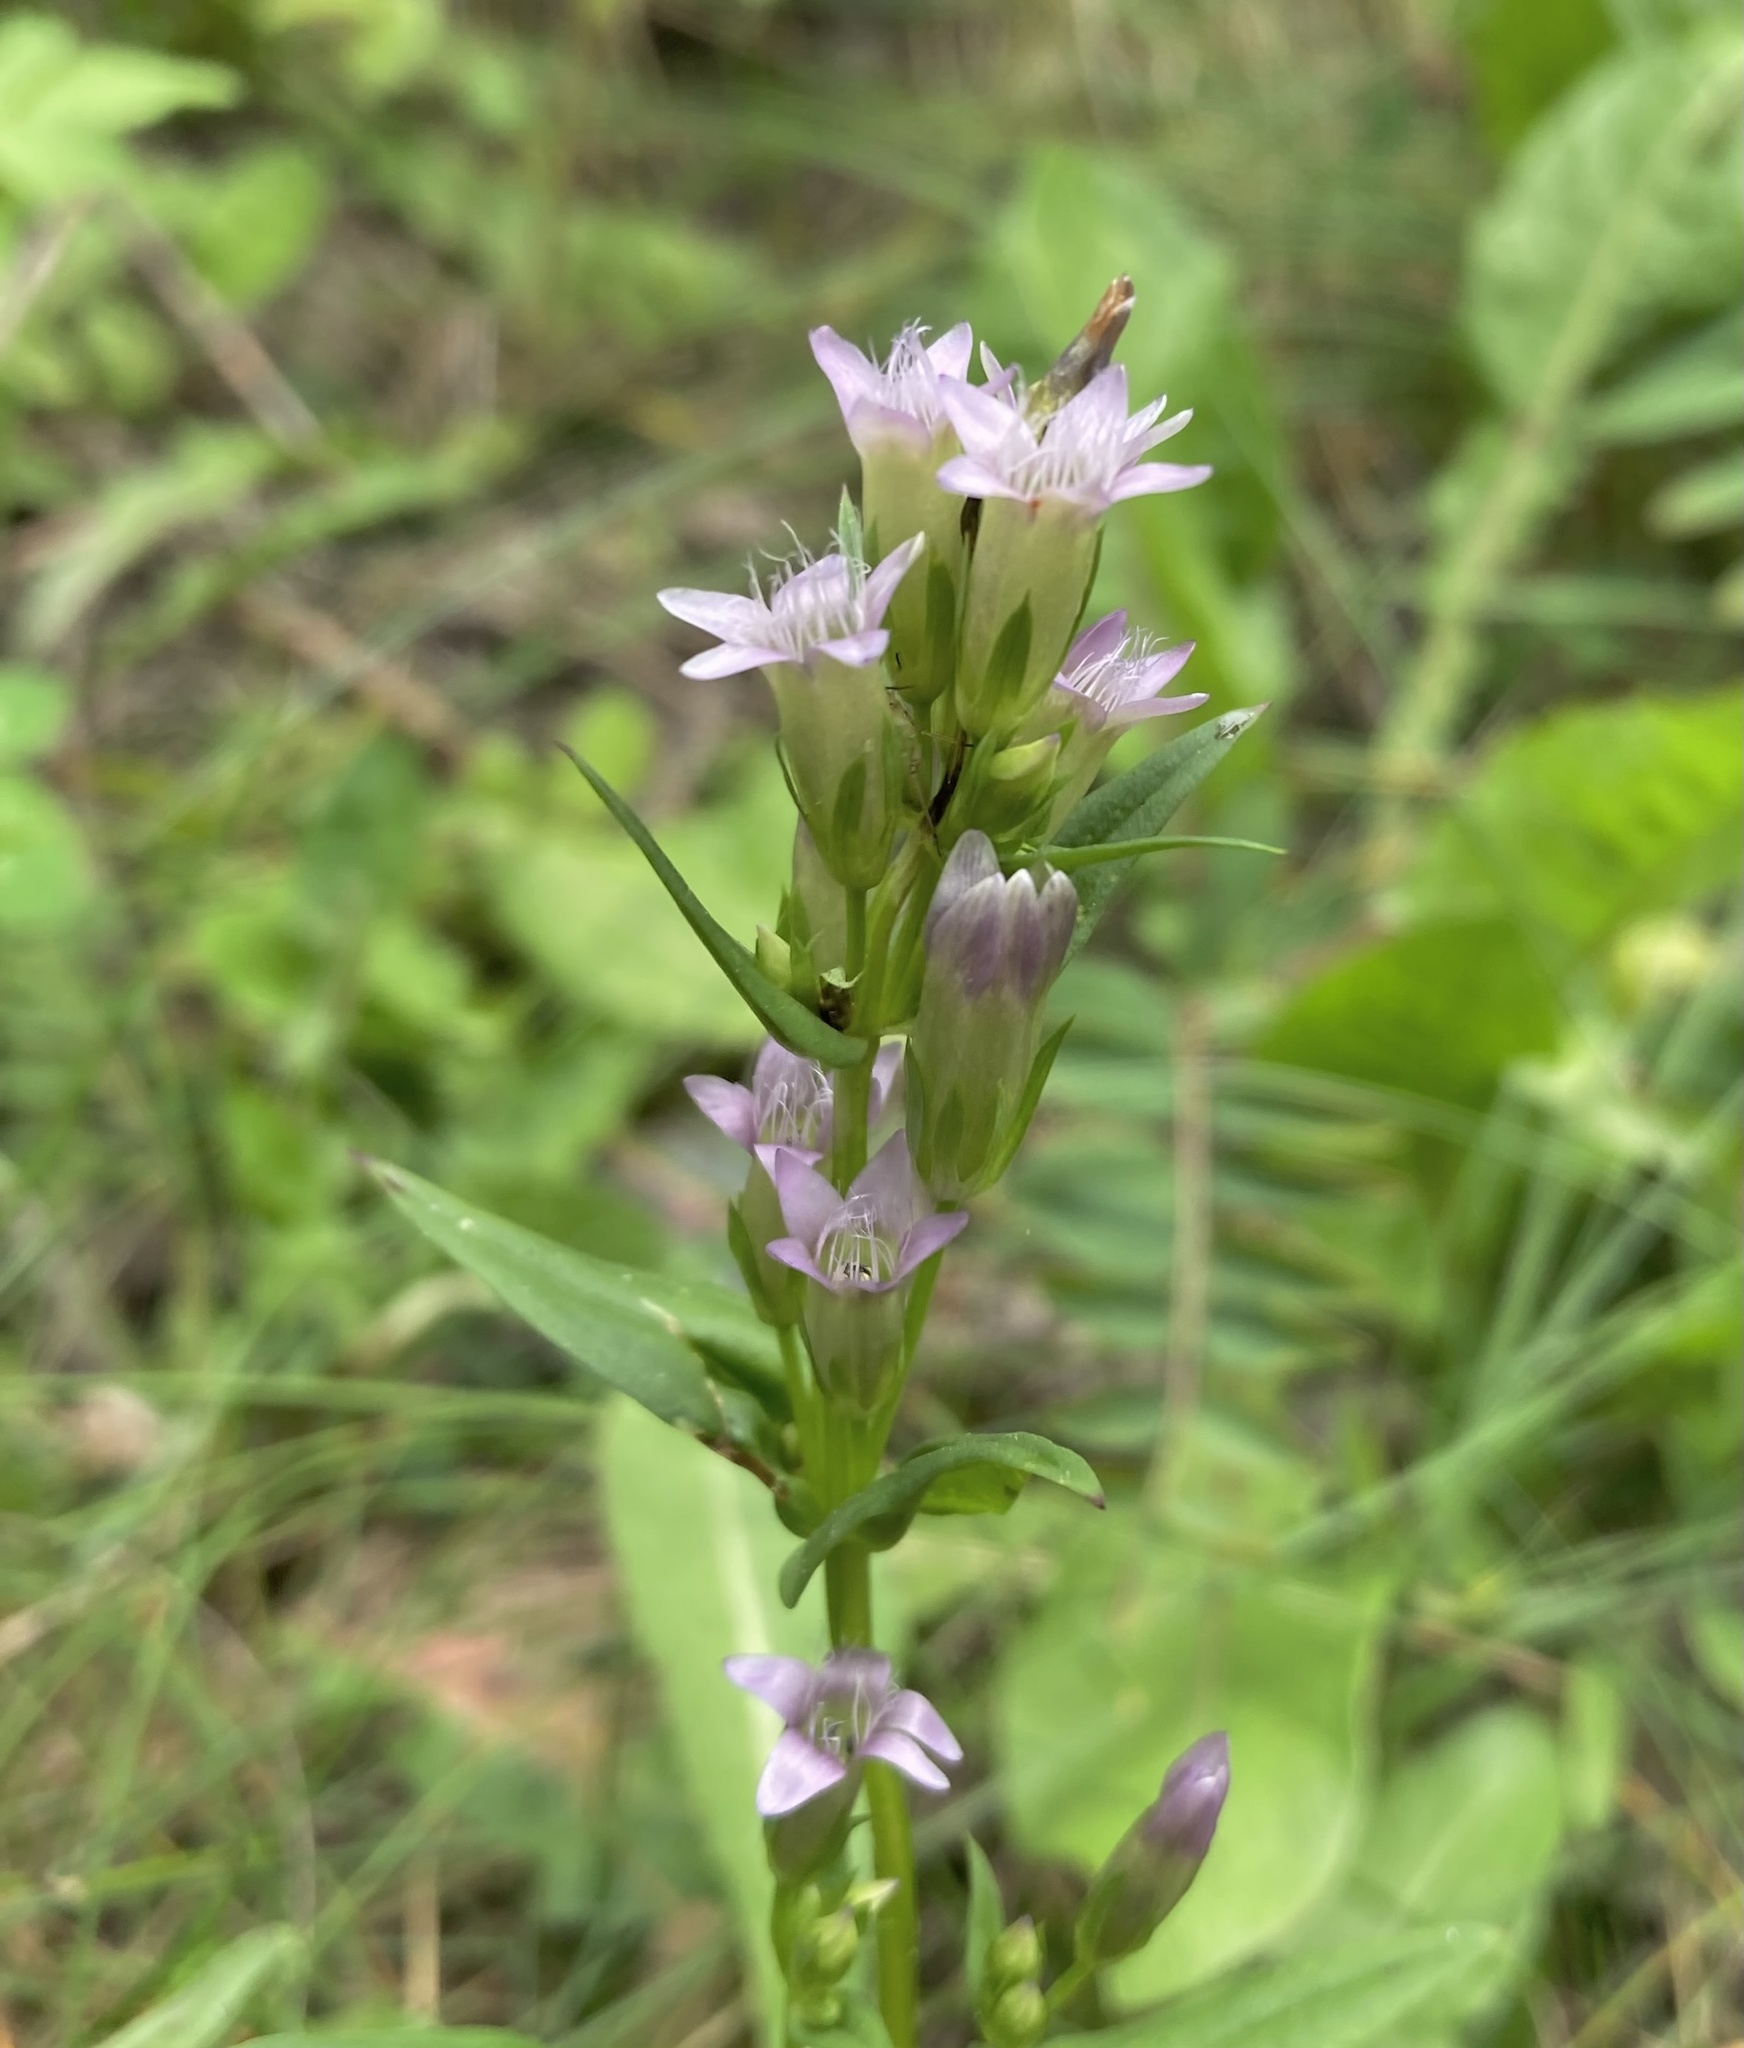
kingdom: Plantae
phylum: Tracheophyta
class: Magnoliopsida
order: Gentianales
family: Gentianaceae
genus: Gentianella
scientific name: Gentianella amarella
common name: Autumn gentian
